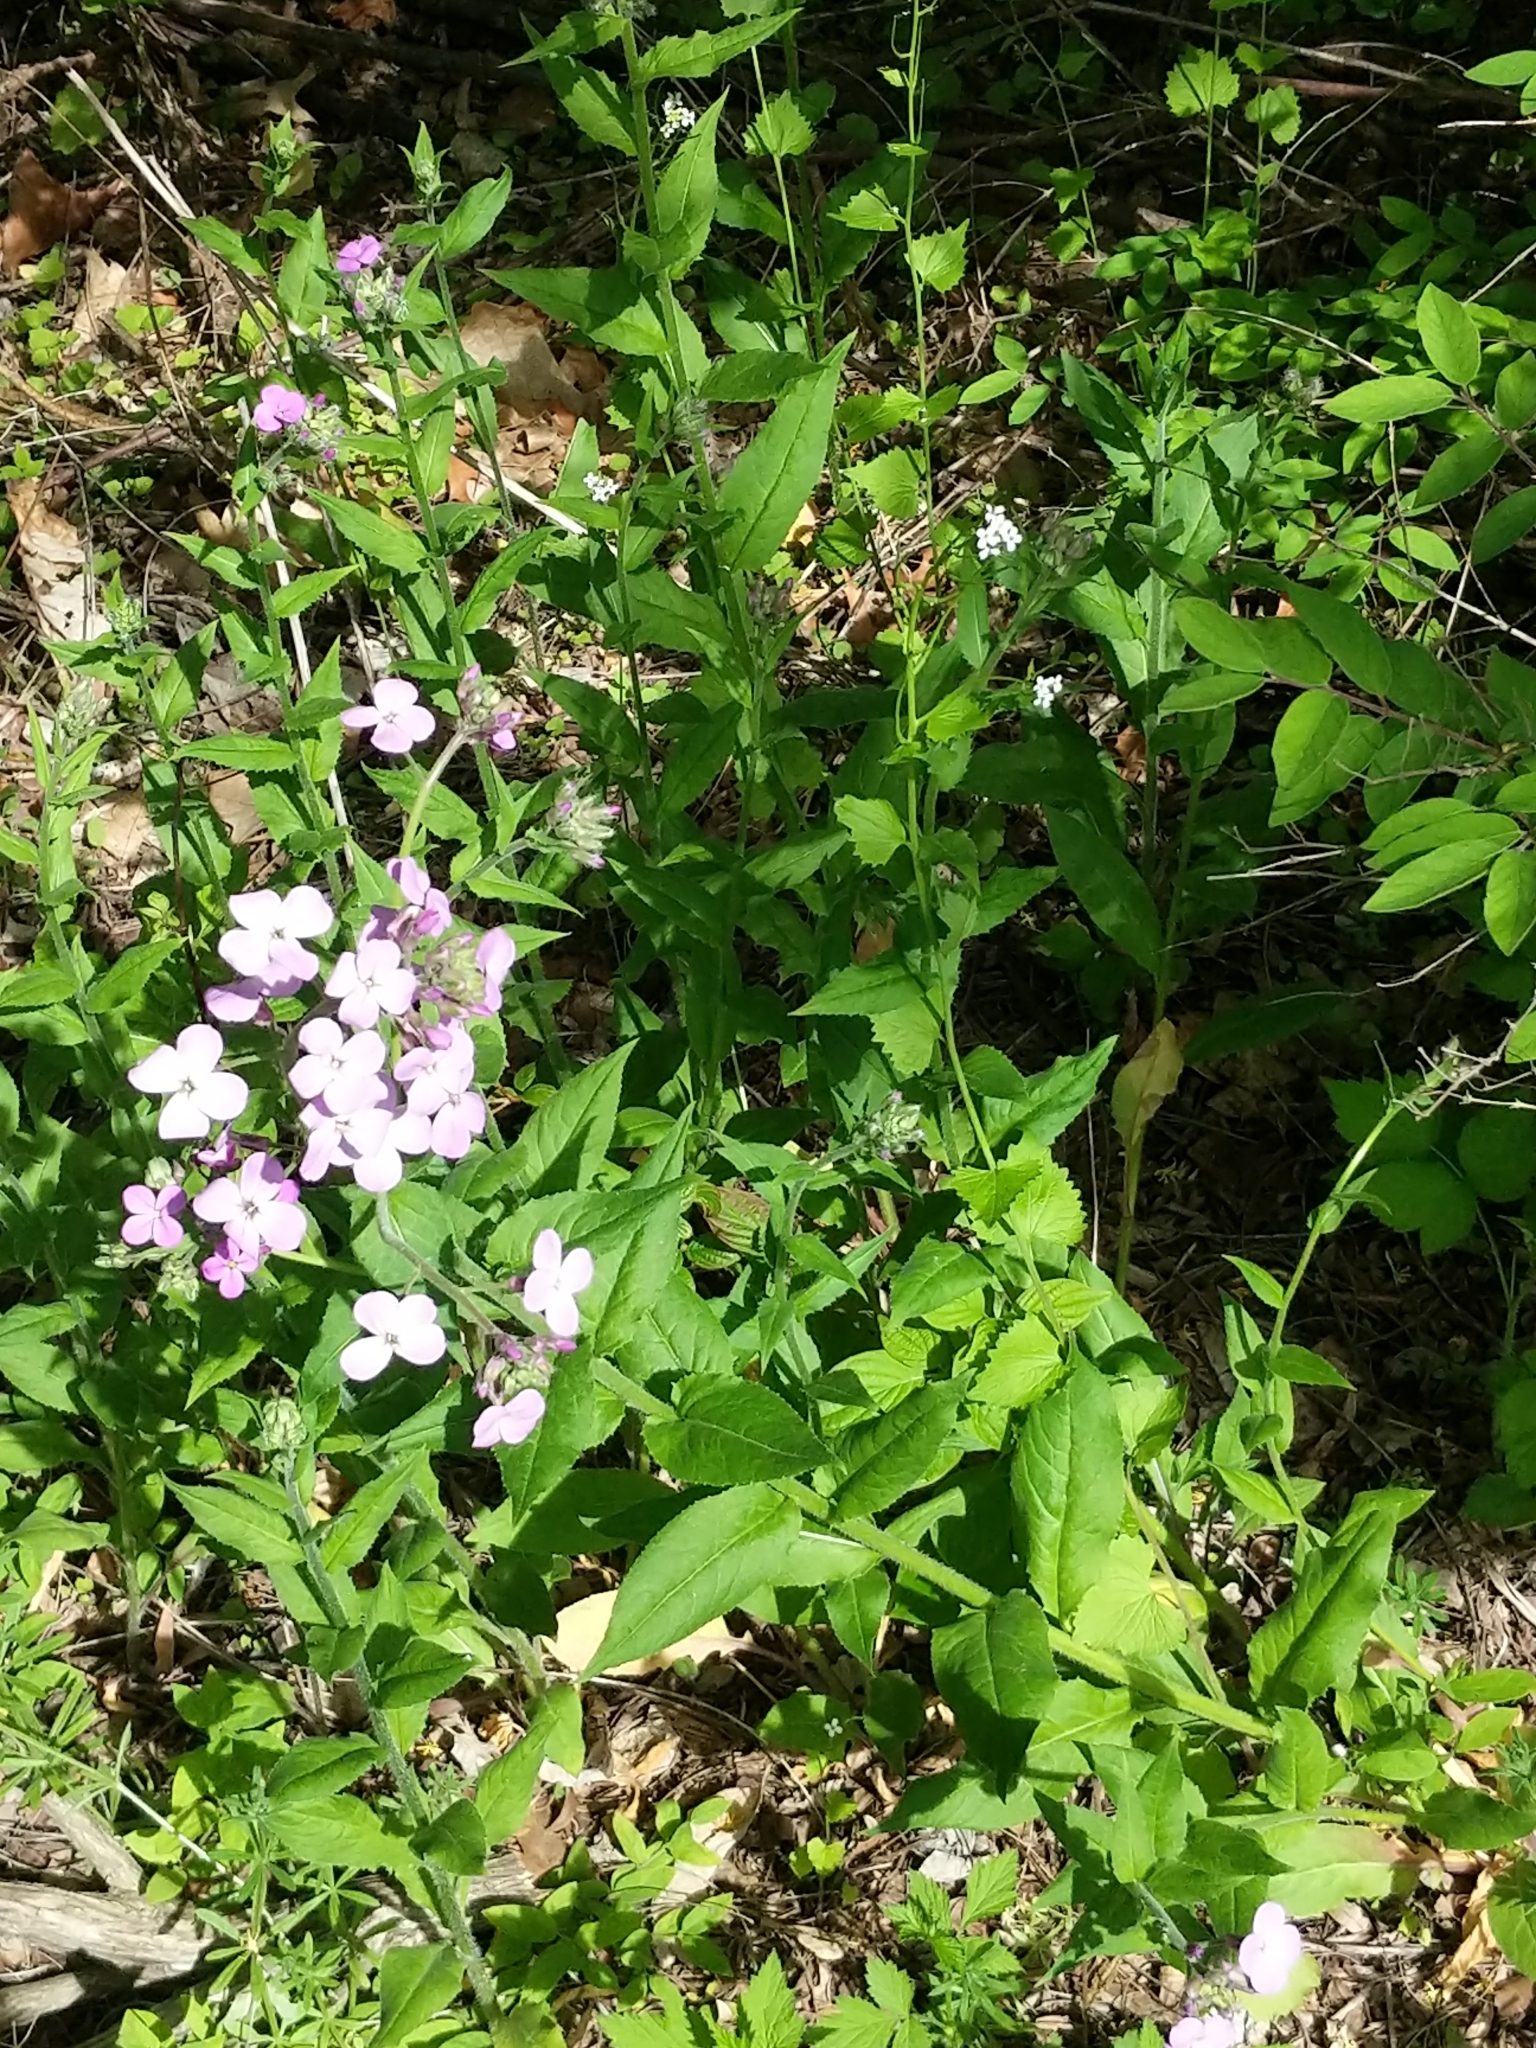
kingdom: Plantae
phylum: Tracheophyta
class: Magnoliopsida
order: Brassicales
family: Brassicaceae
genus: Hesperis
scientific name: Hesperis matronalis
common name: Dame's-violet
